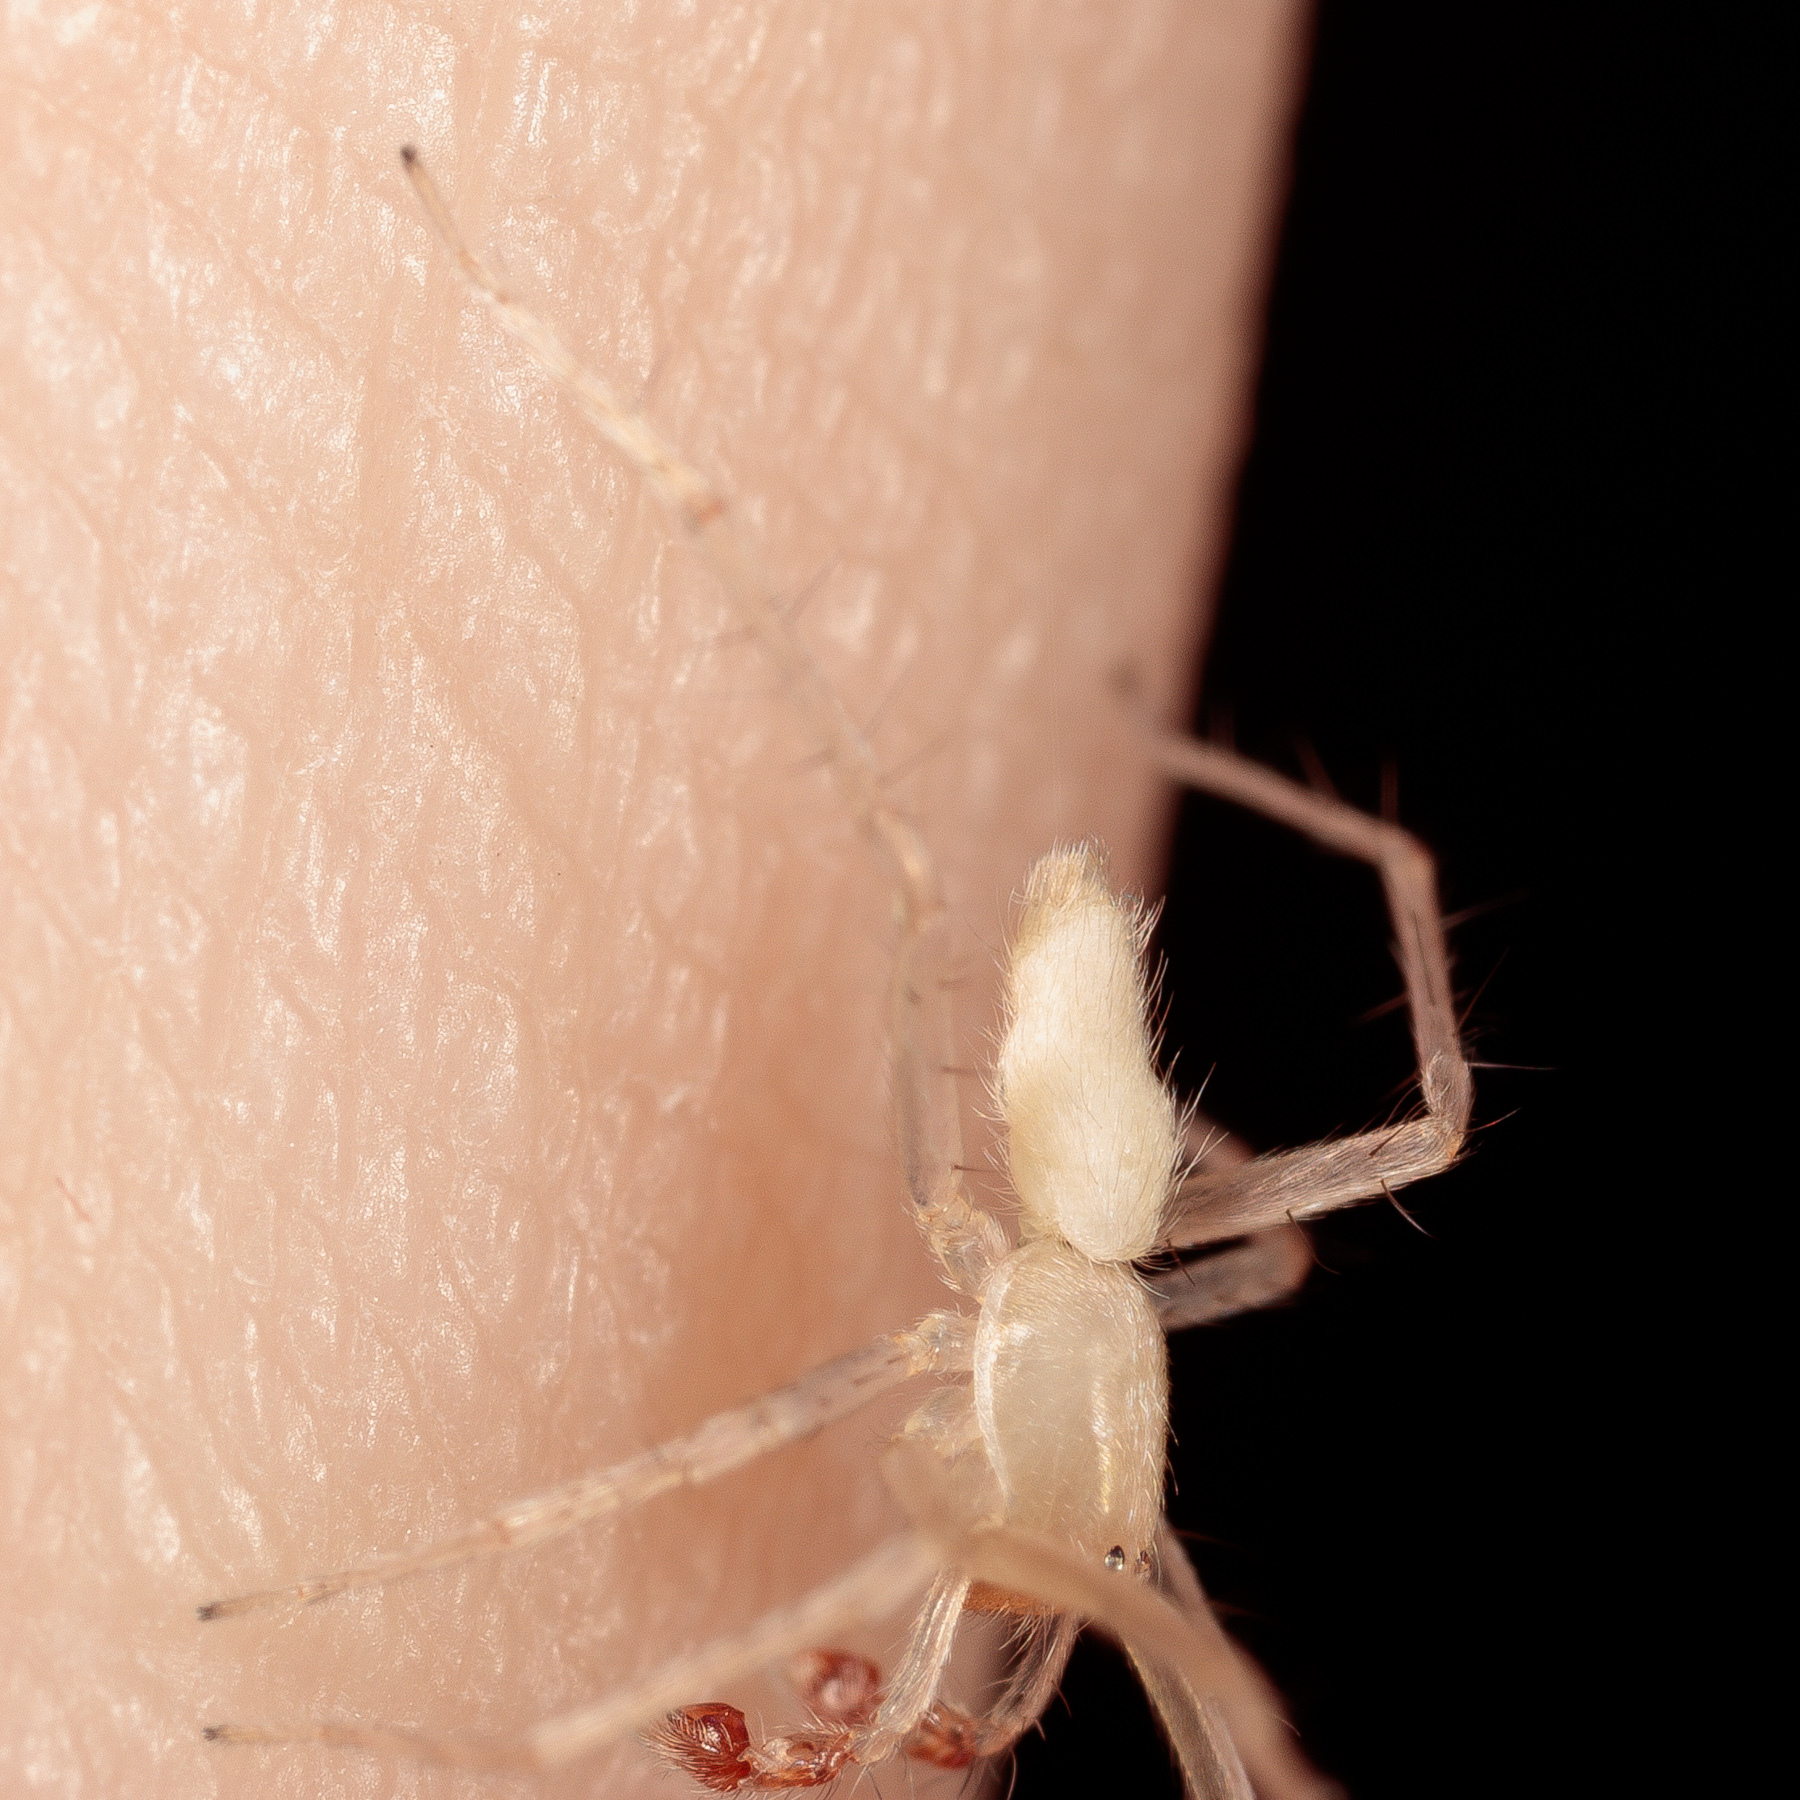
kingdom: Animalia
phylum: Arthropoda
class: Arachnida
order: Araneae
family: Anyphaenidae
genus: Wulfila
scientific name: Wulfila tantillus
